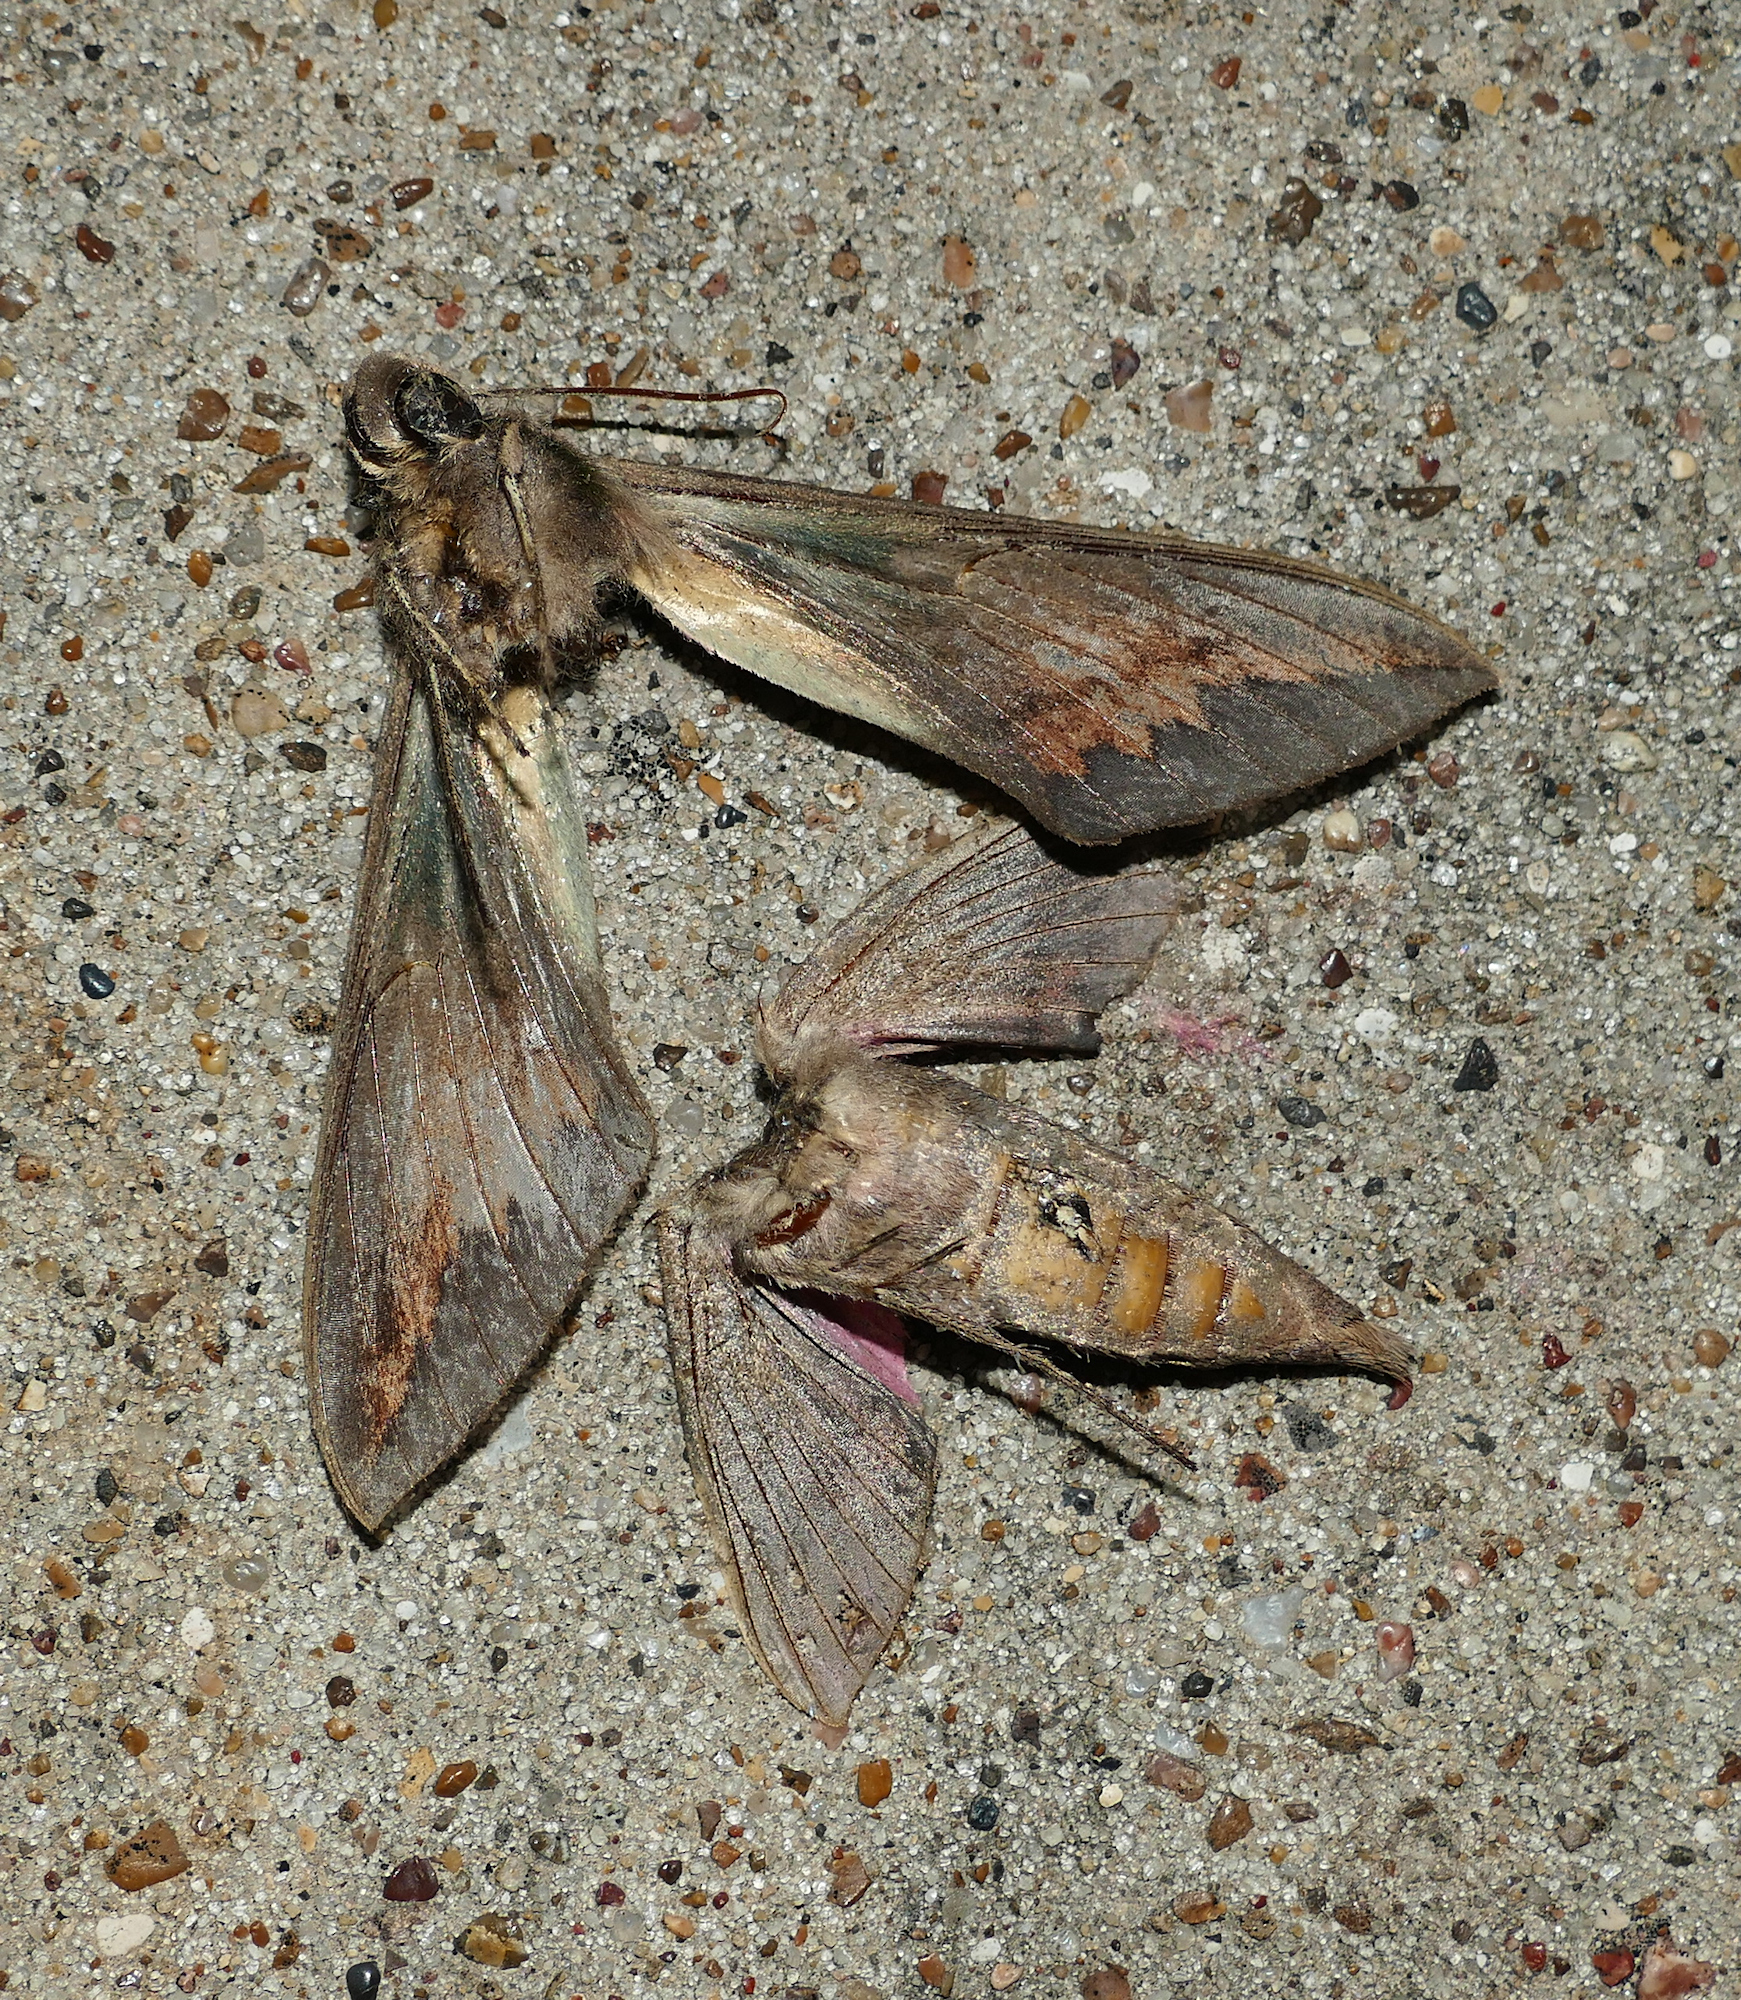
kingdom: Animalia
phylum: Arthropoda
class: Insecta
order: Lepidoptera
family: Sphingidae
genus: Eumorpha
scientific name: Eumorpha fasciatus
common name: Banded sphinx
